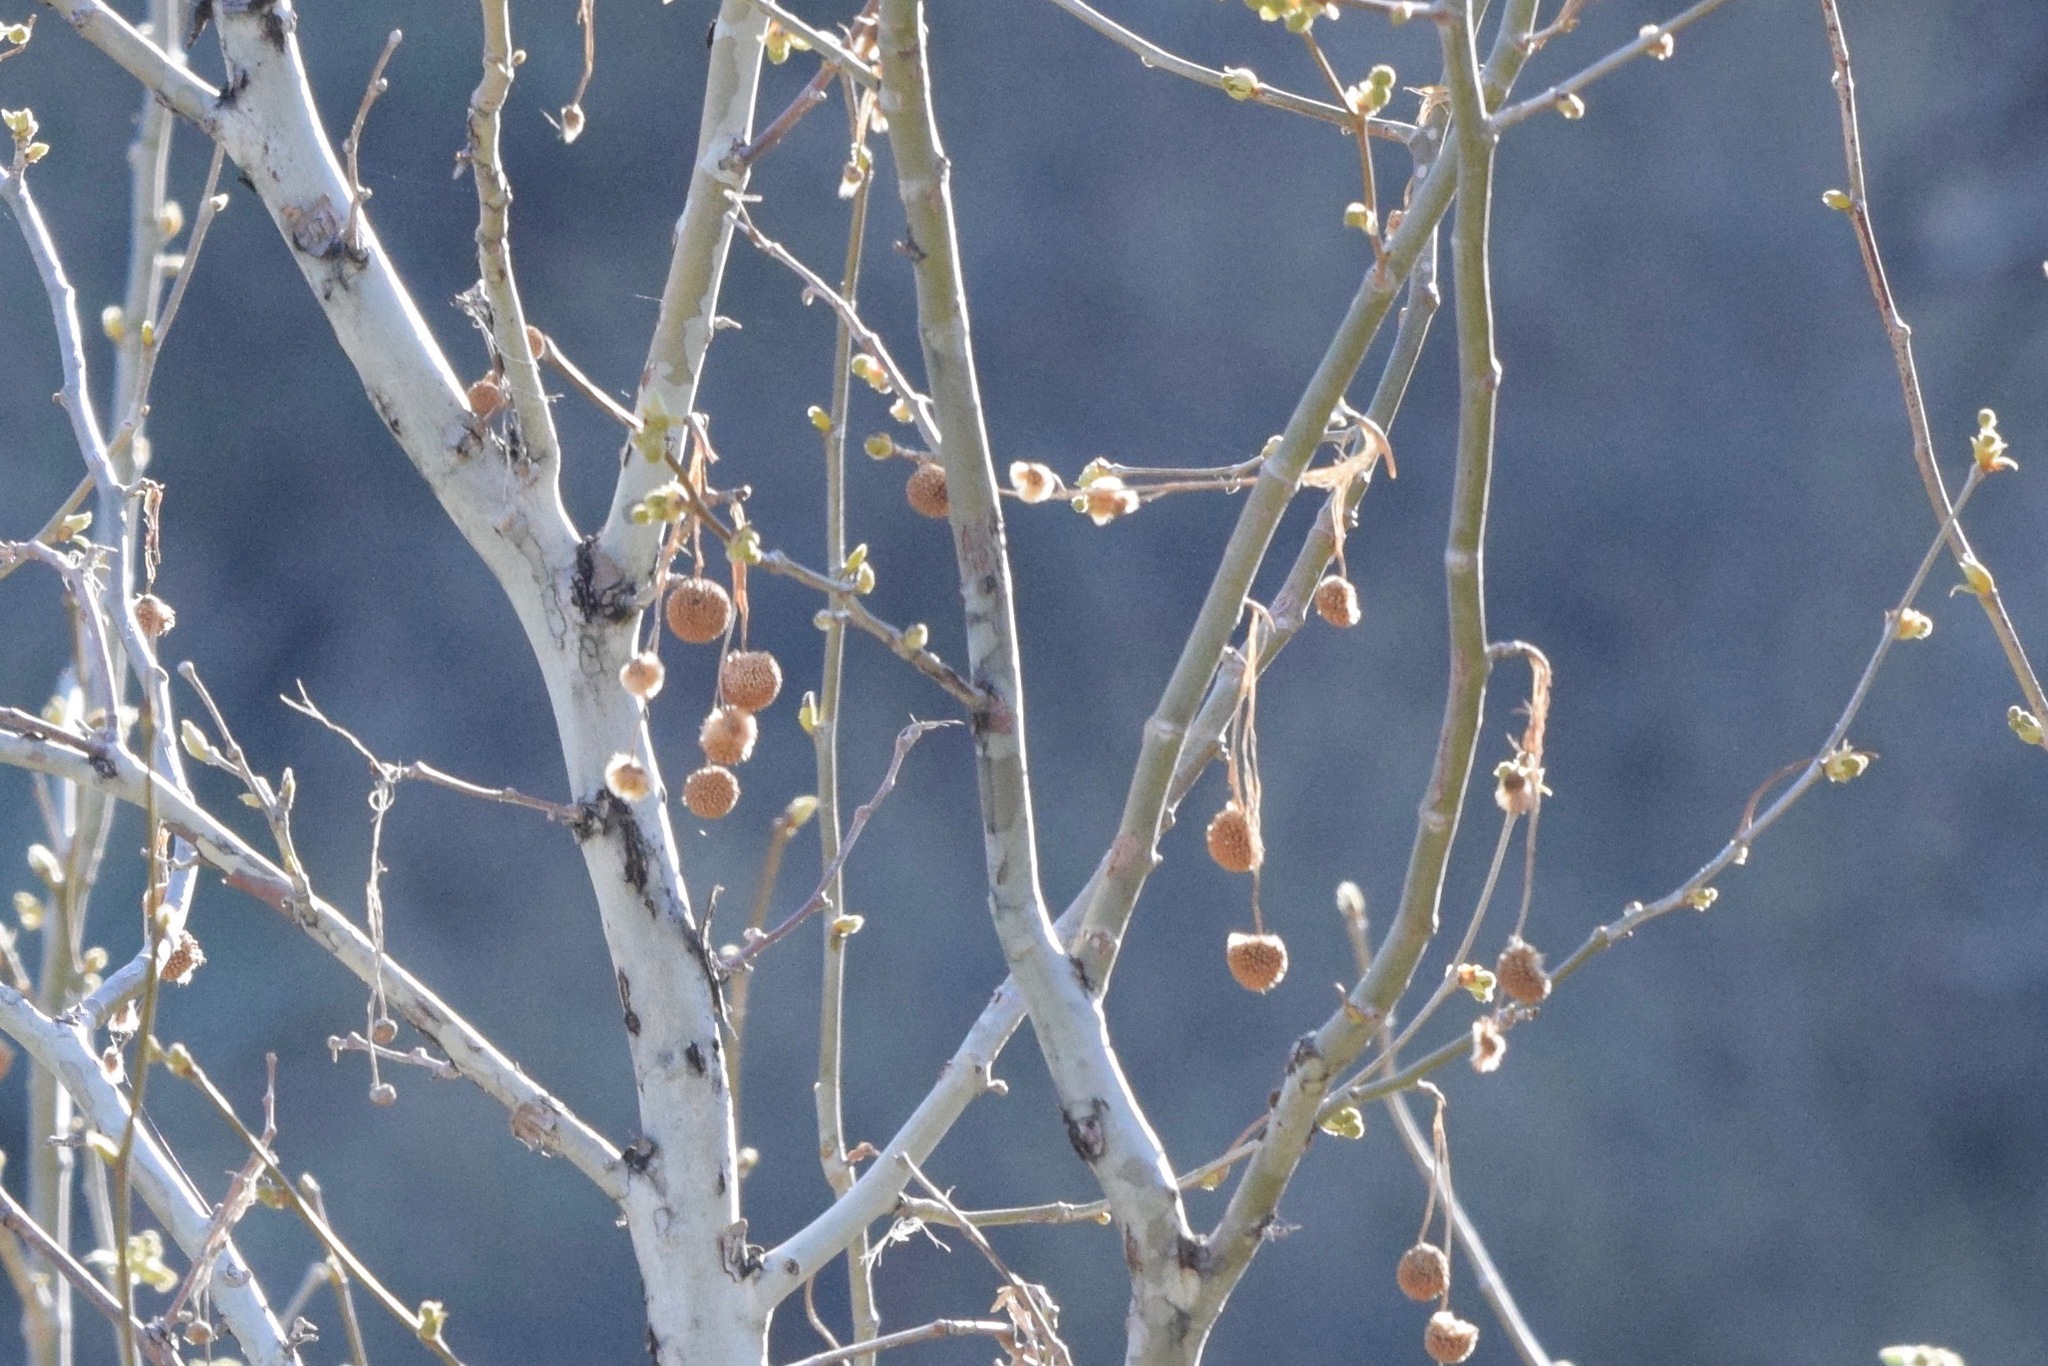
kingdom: Plantae
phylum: Tracheophyta
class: Magnoliopsida
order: Proteales
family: Platanaceae
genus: Platanus
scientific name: Platanus wrightii
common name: Arizona sycamore
